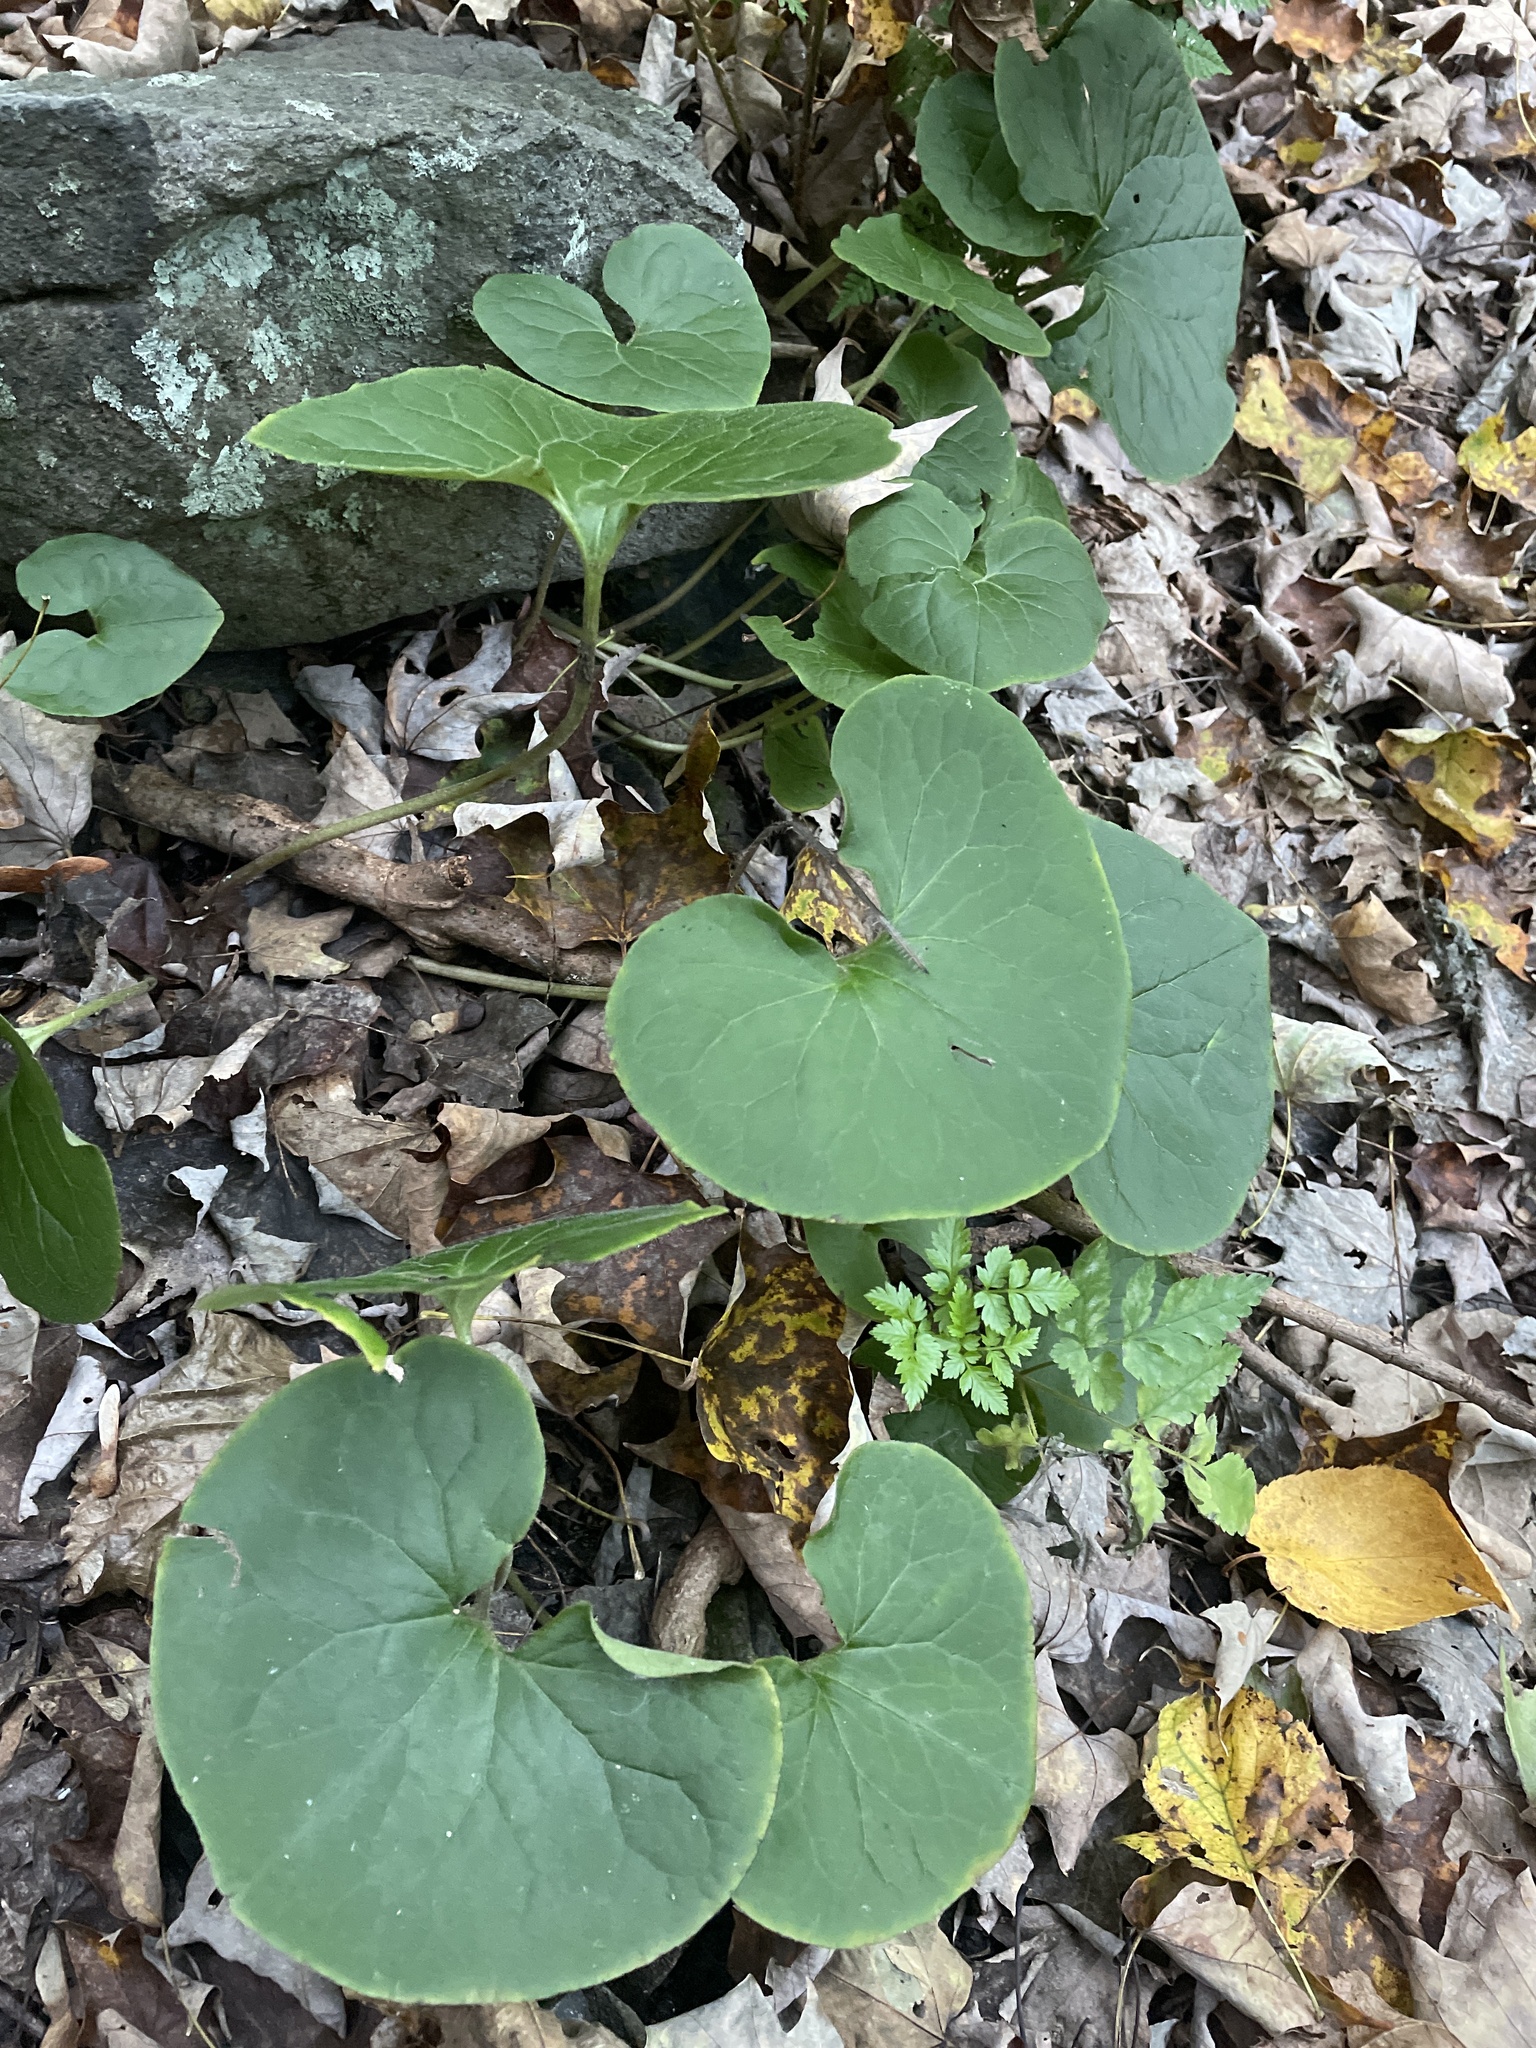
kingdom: Plantae
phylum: Tracheophyta
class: Magnoliopsida
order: Piperales
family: Aristolochiaceae
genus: Asarum
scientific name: Asarum canadense
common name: Wild ginger
